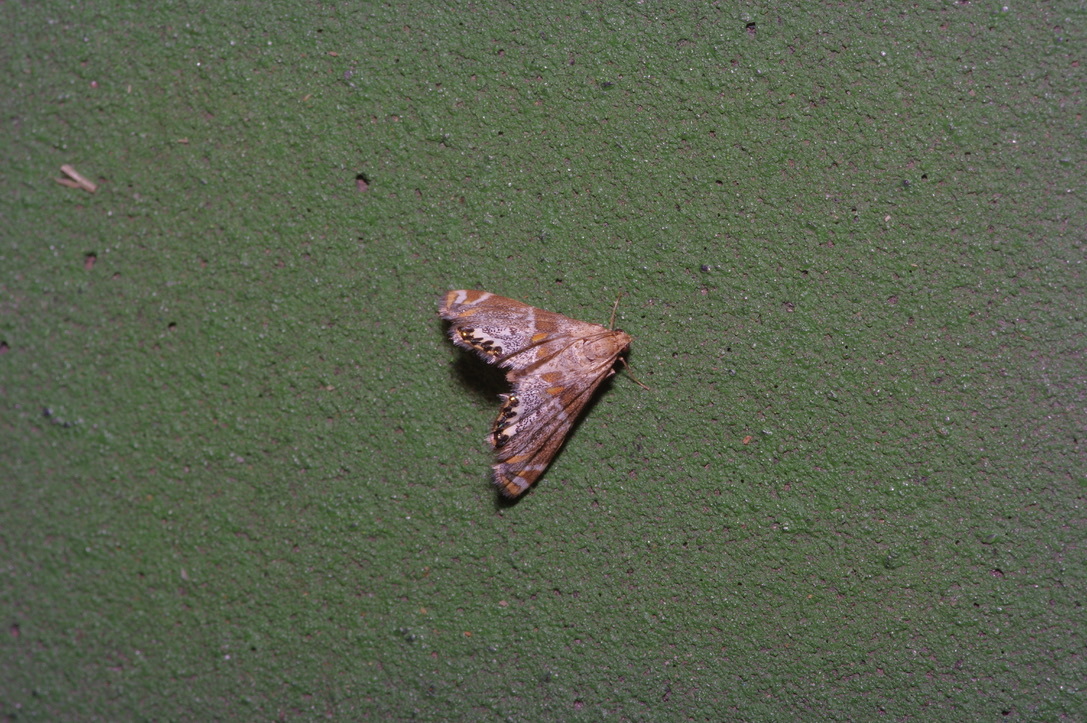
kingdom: Animalia
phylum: Arthropoda
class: Insecta
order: Lepidoptera
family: Crambidae
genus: Petrophila
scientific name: Petrophila jaliscalis
